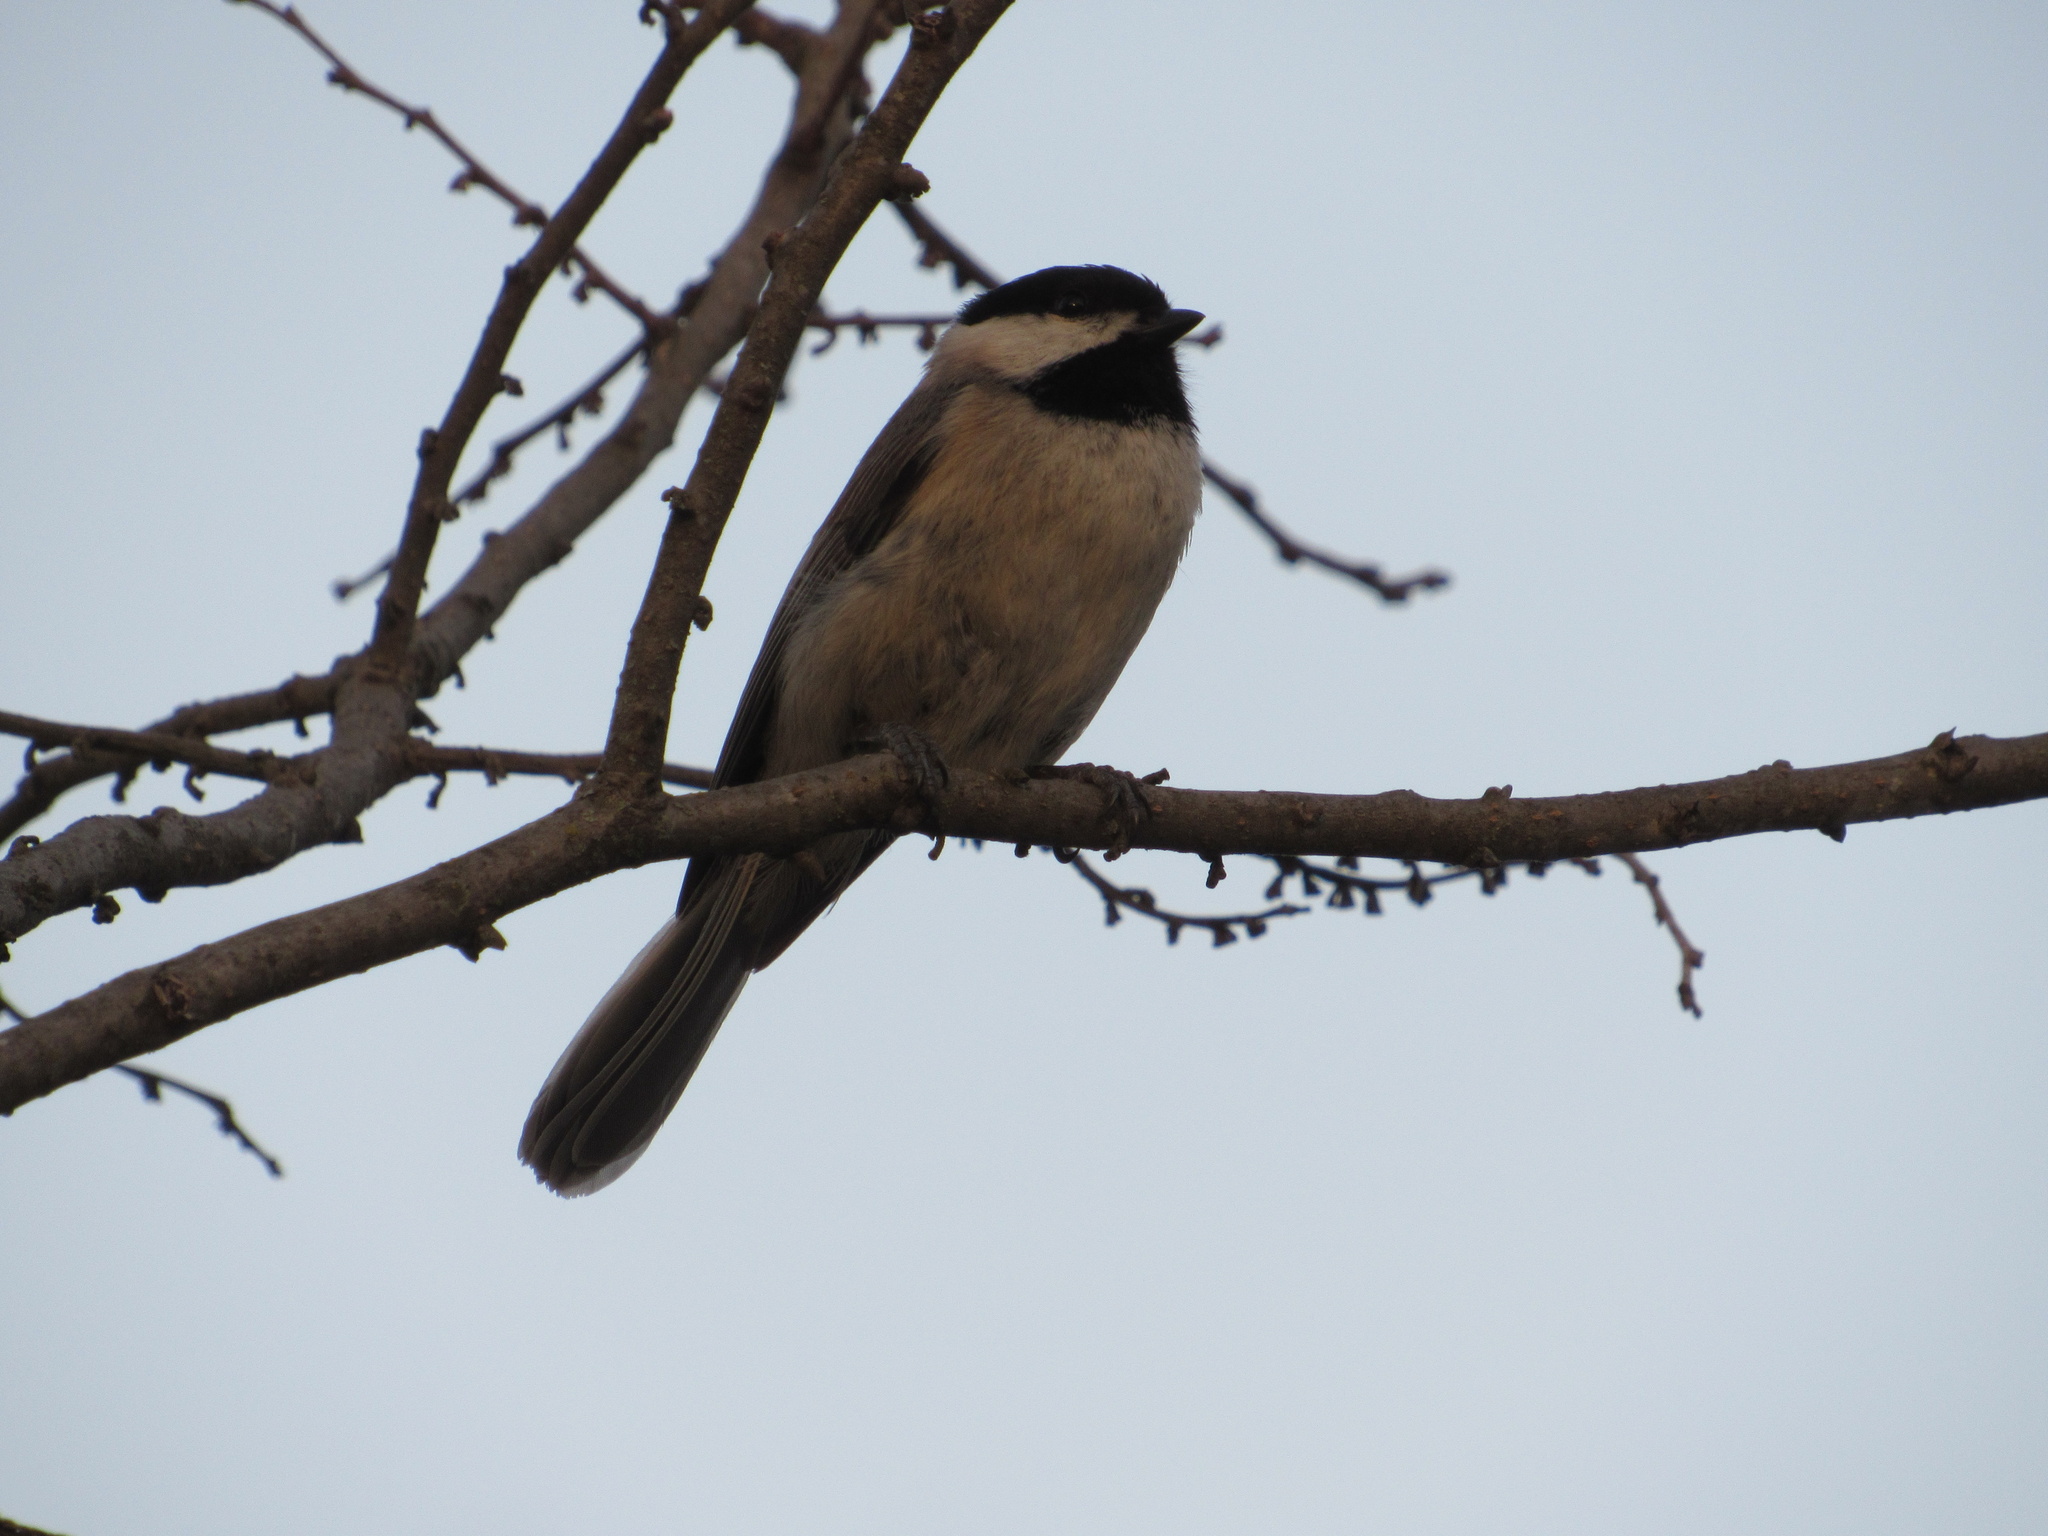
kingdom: Animalia
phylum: Chordata
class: Aves
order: Passeriformes
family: Paridae
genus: Poecile
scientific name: Poecile carolinensis
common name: Carolina chickadee
